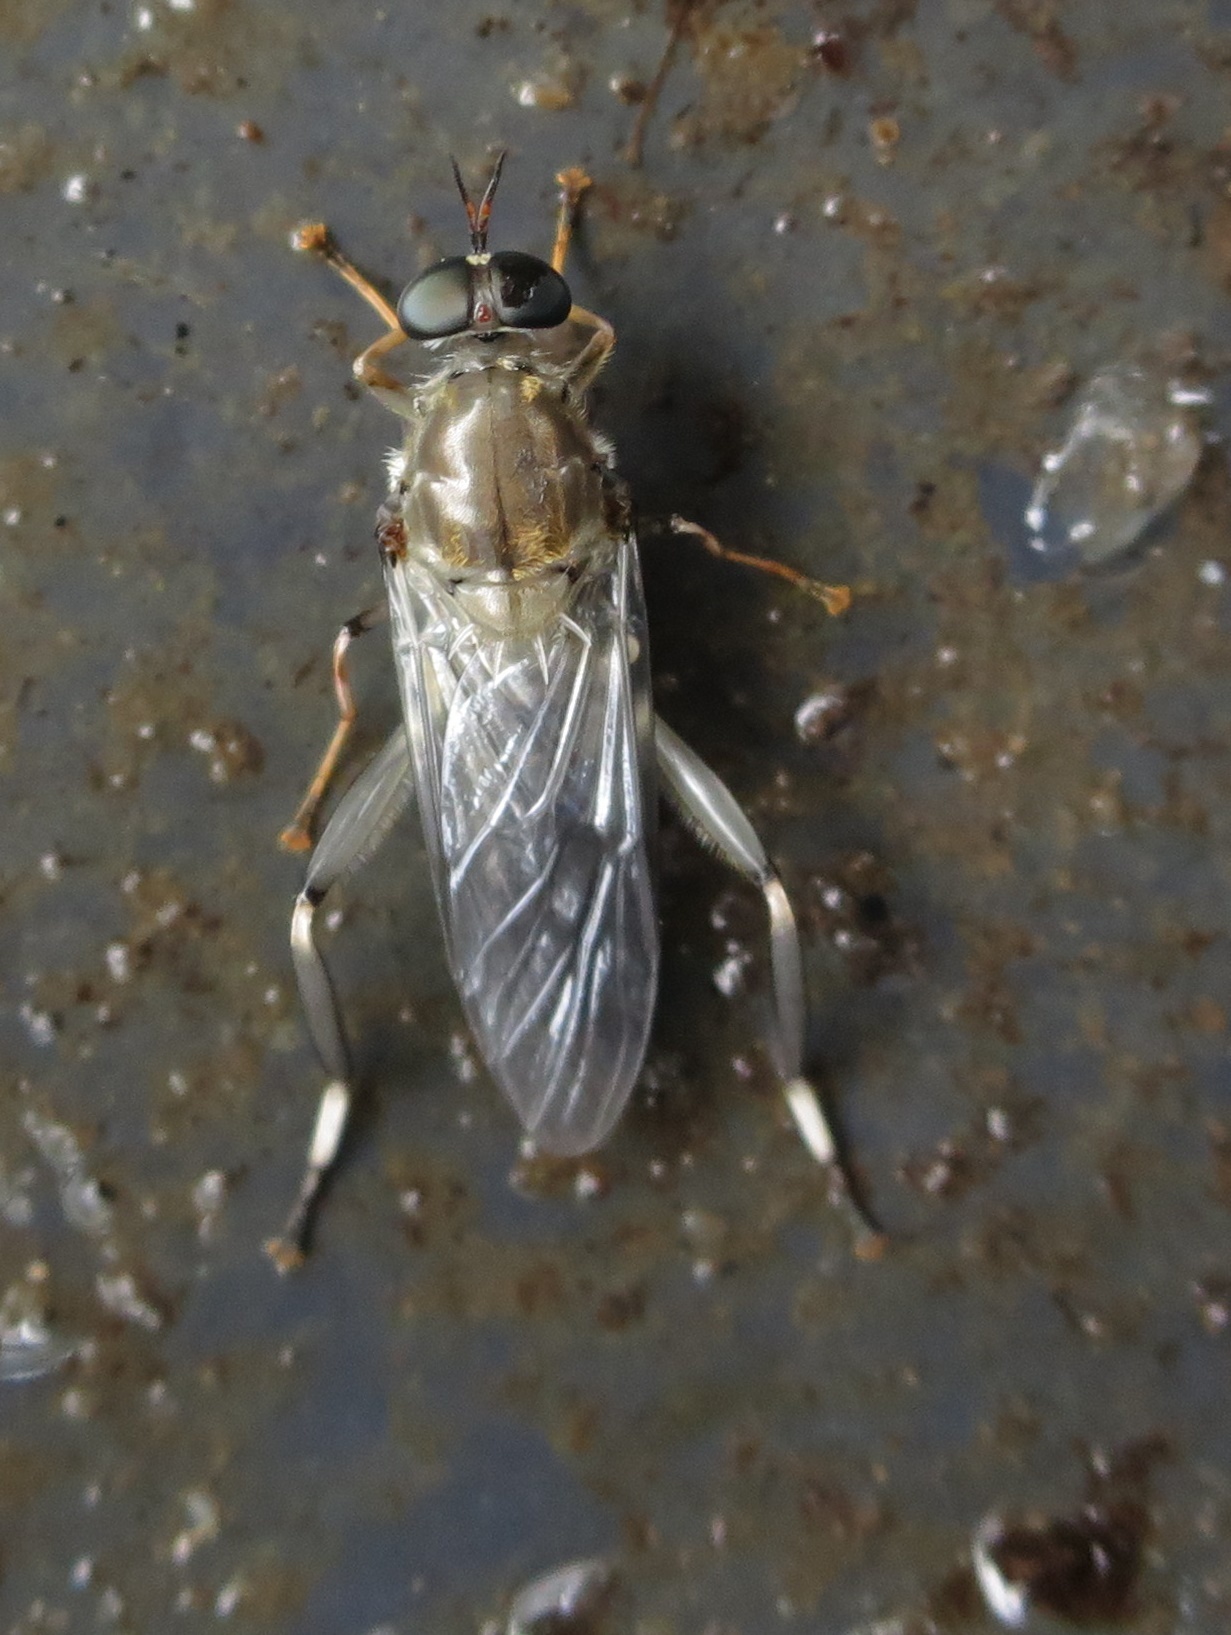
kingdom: Animalia
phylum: Arthropoda
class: Insecta
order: Diptera
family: Stratiomyidae
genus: Exaireta
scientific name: Exaireta spinigera
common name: Blue soldier fly
